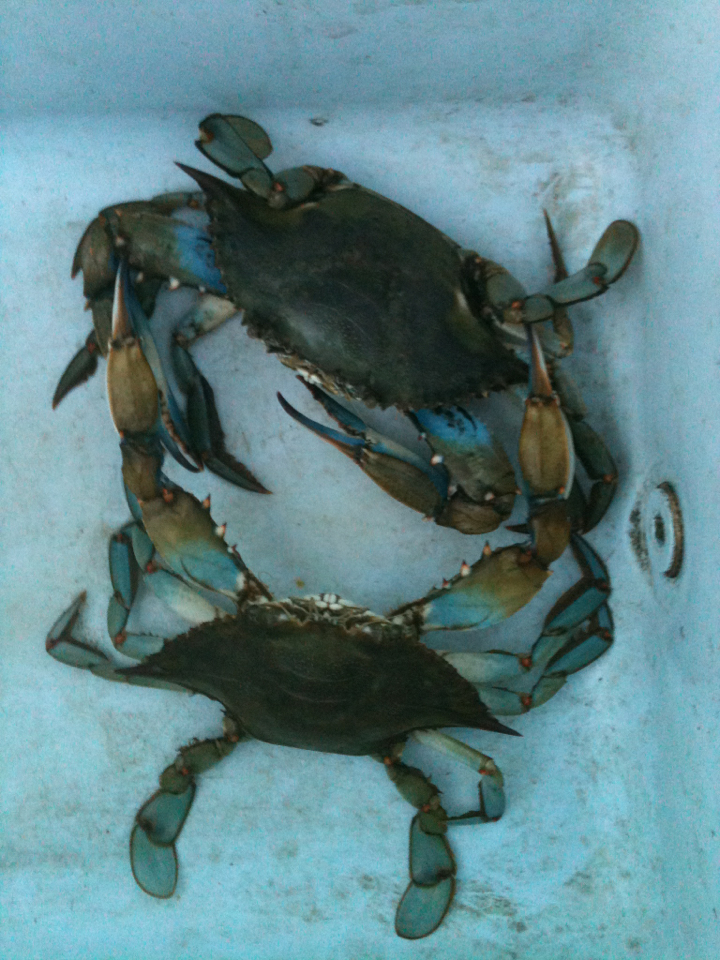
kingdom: Animalia
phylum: Arthropoda
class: Malacostraca
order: Decapoda
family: Portunidae
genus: Callinectes
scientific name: Callinectes sapidus
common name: Blue crab
